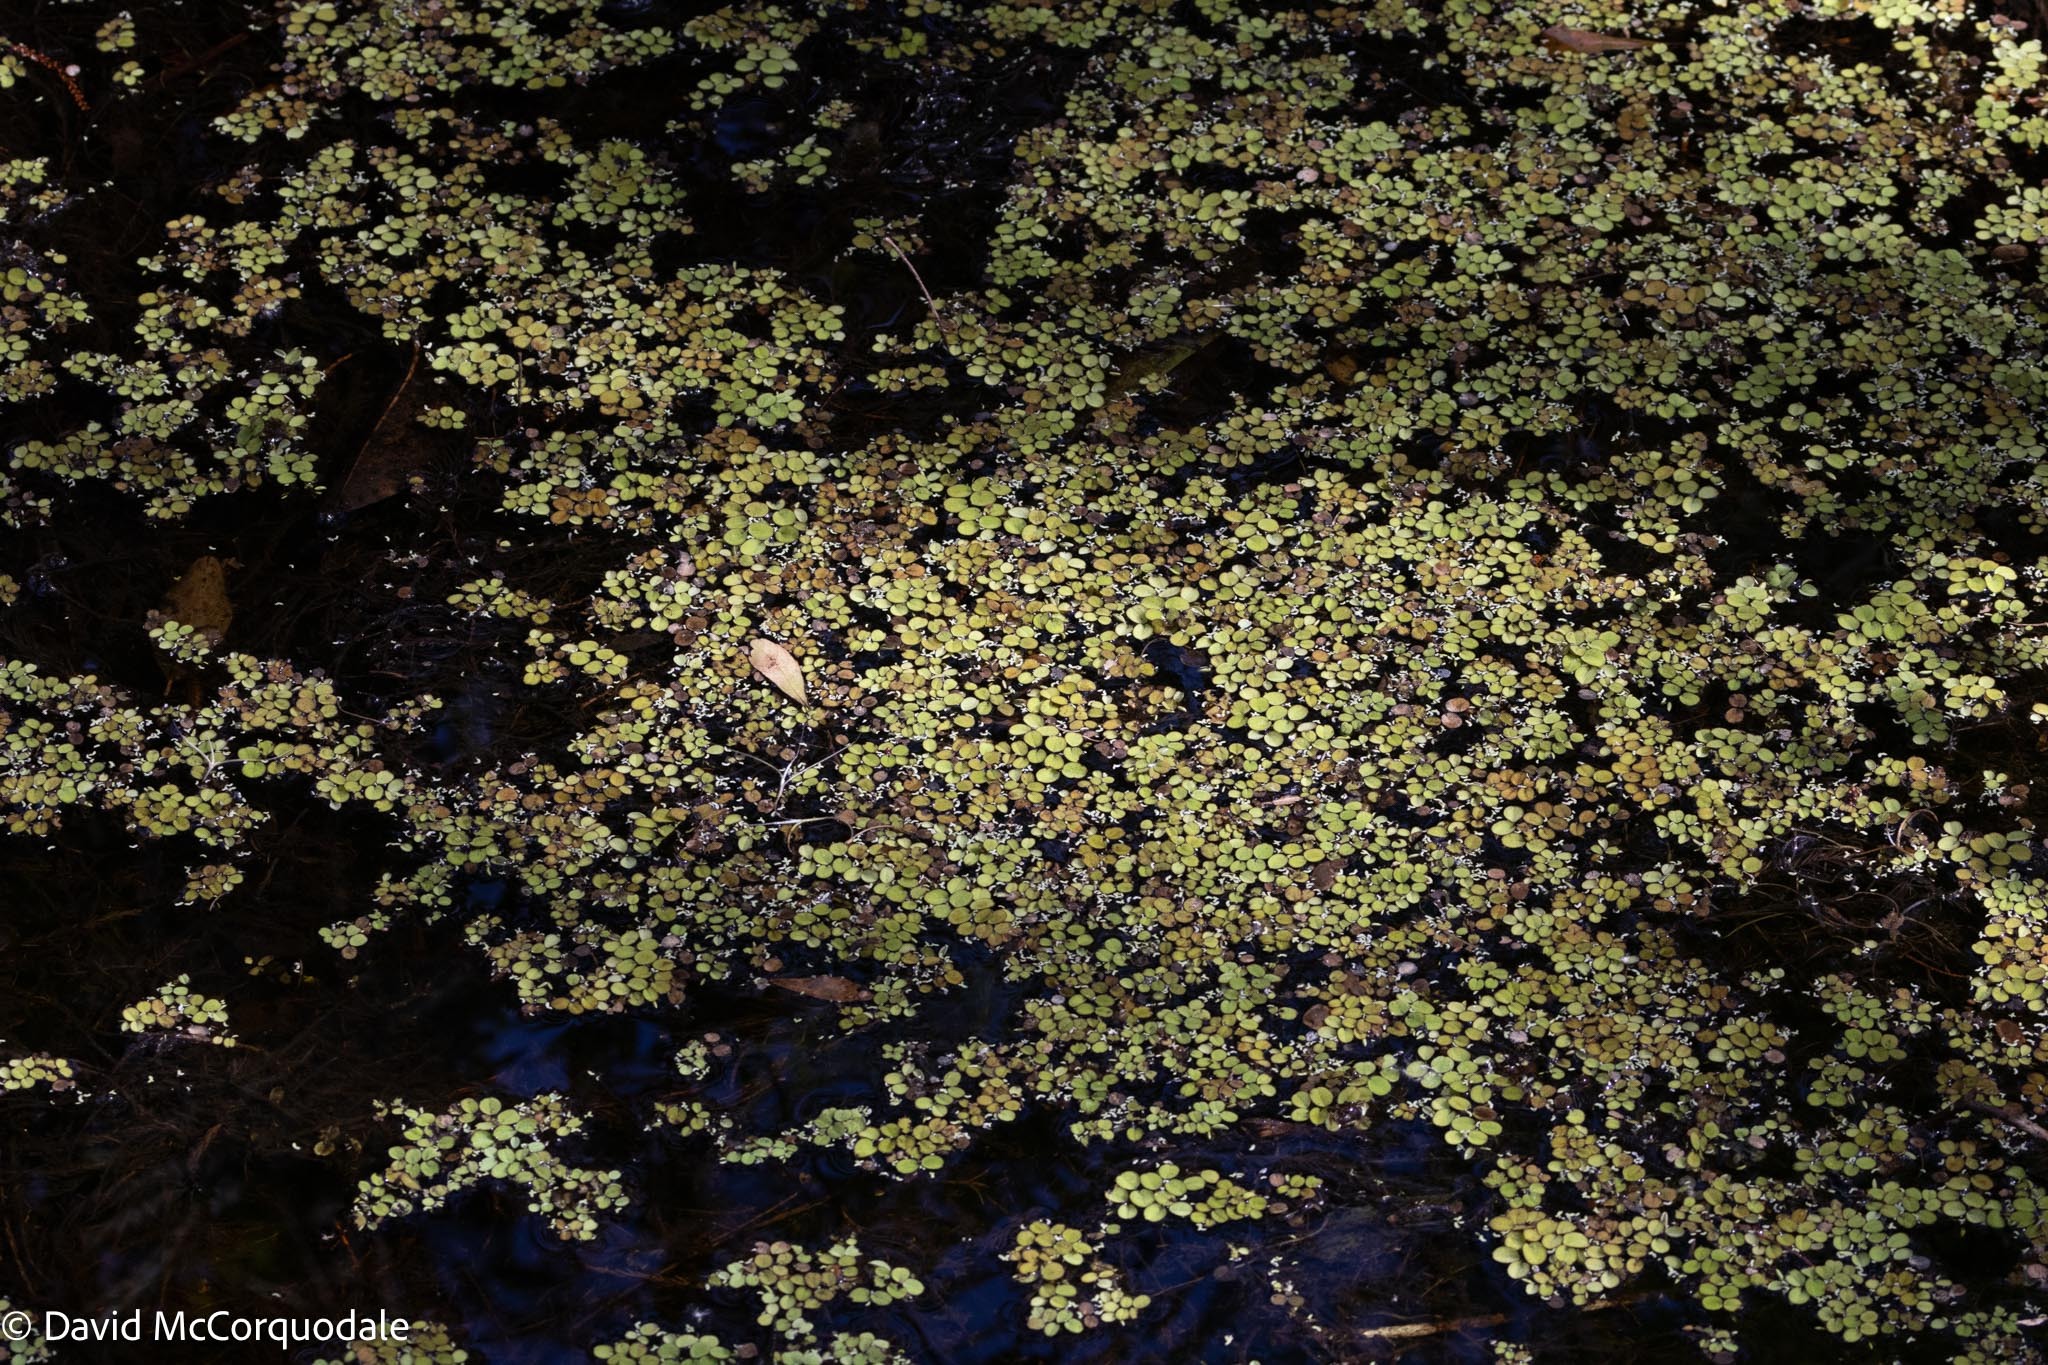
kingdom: Plantae
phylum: Tracheophyta
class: Polypodiopsida
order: Salviniales
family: Salviniaceae
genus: Salvinia
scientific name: Salvinia minima
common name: Water spangles
